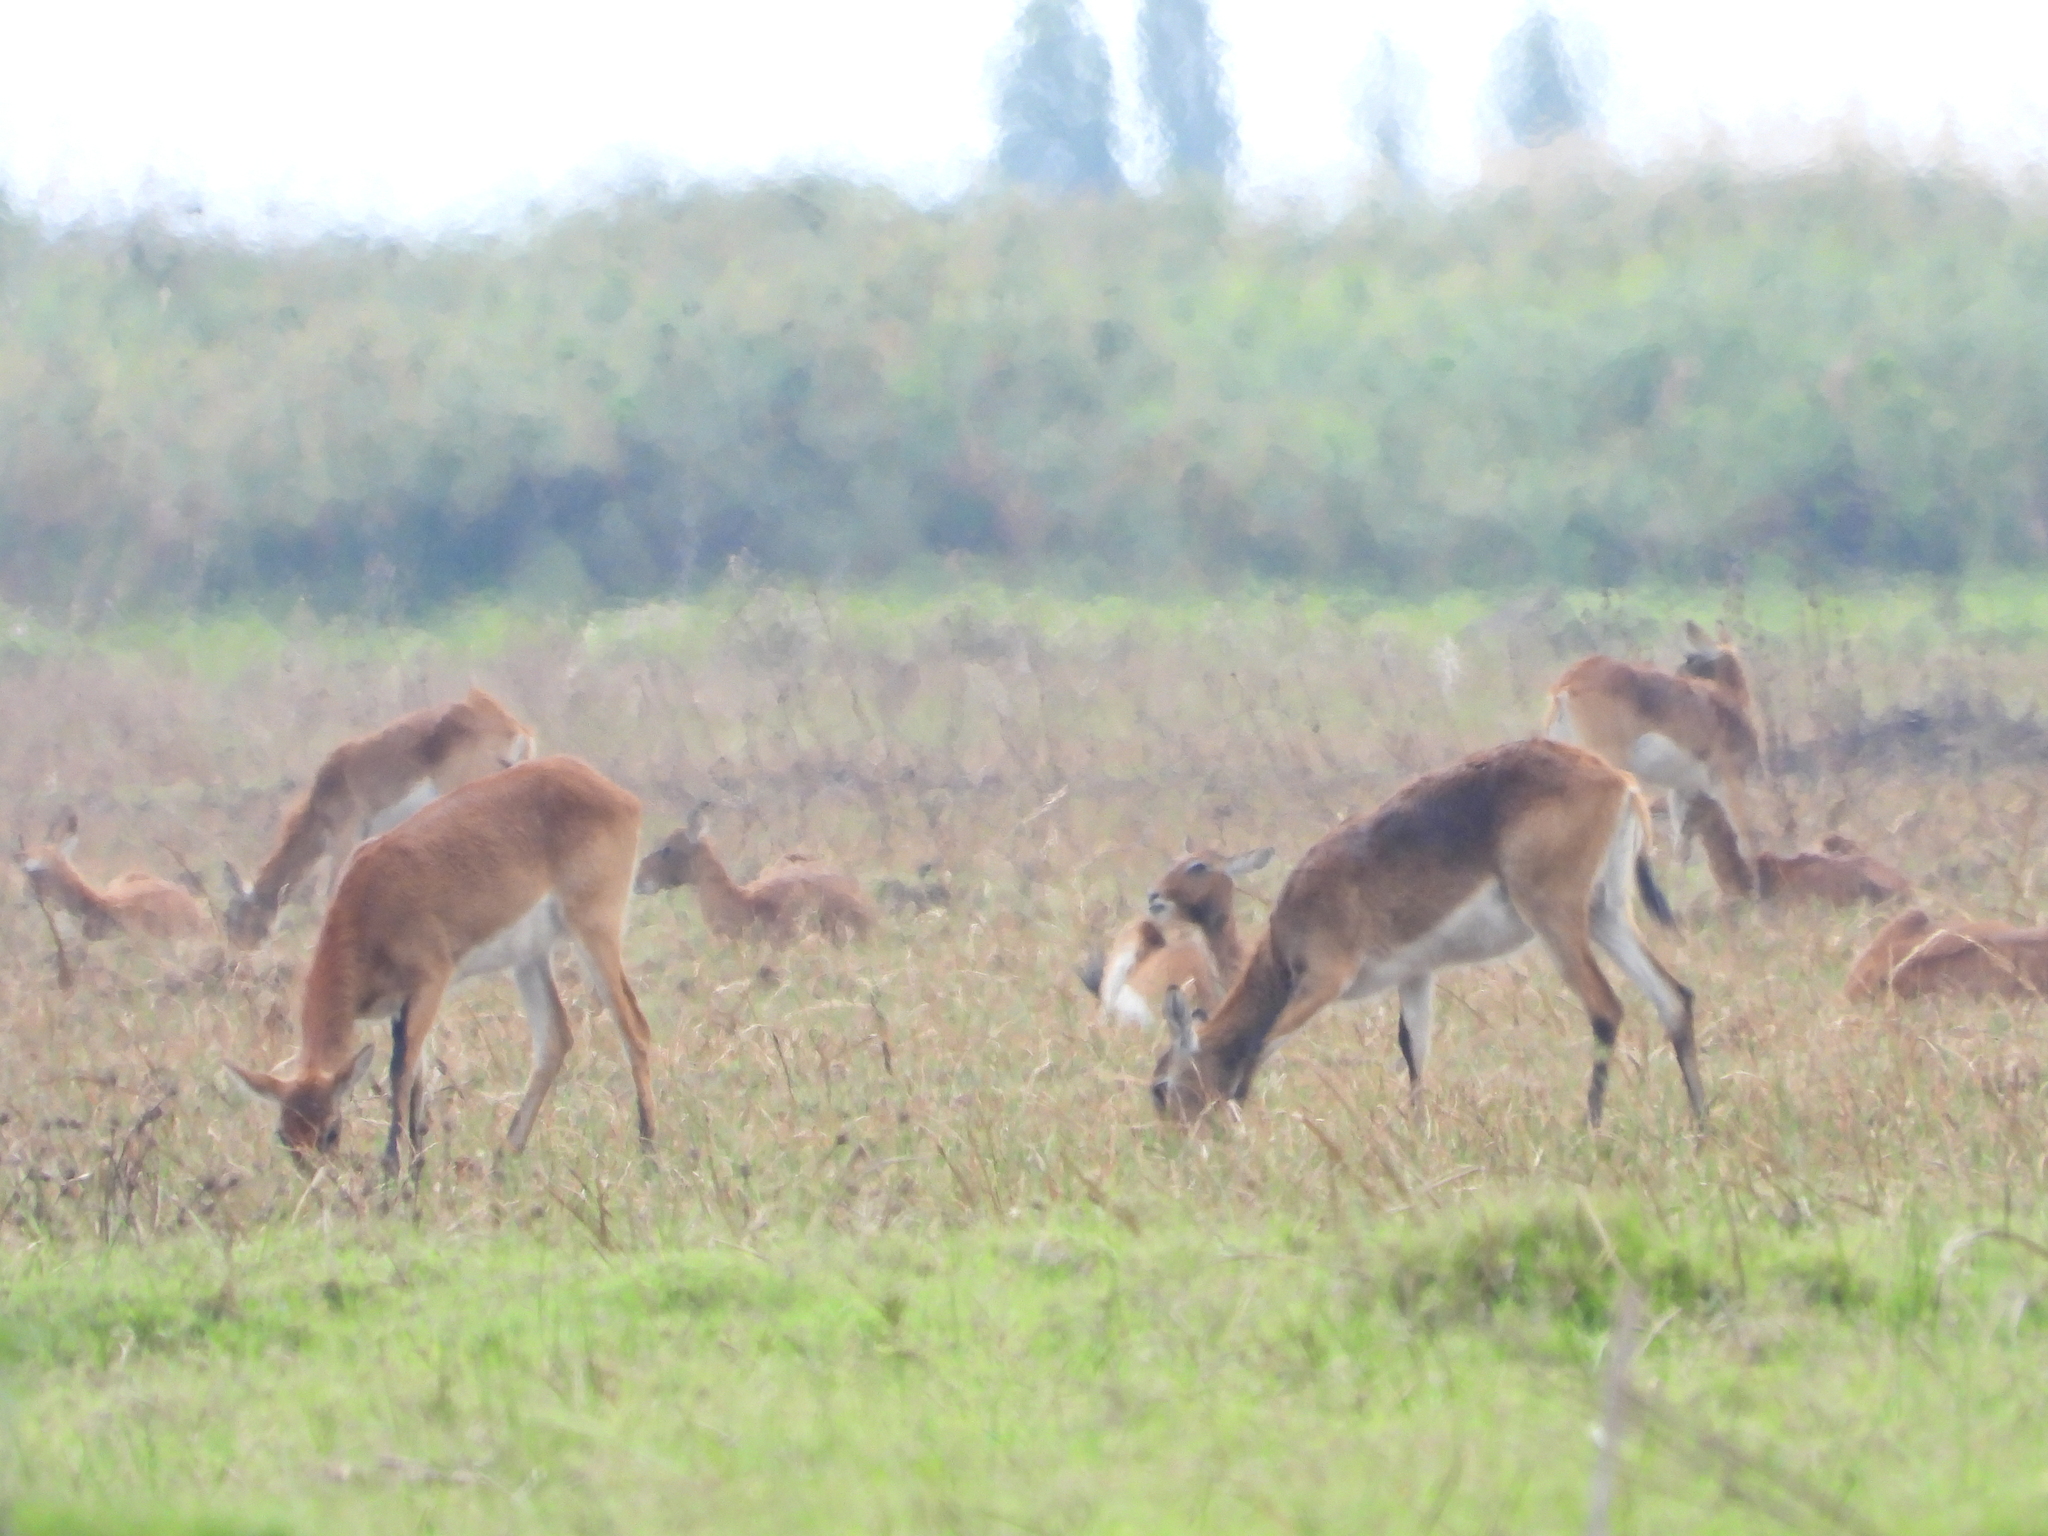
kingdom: Animalia
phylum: Chordata
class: Mammalia
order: Artiodactyla
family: Bovidae
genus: Kobus
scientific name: Kobus leche
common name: Lechwe
